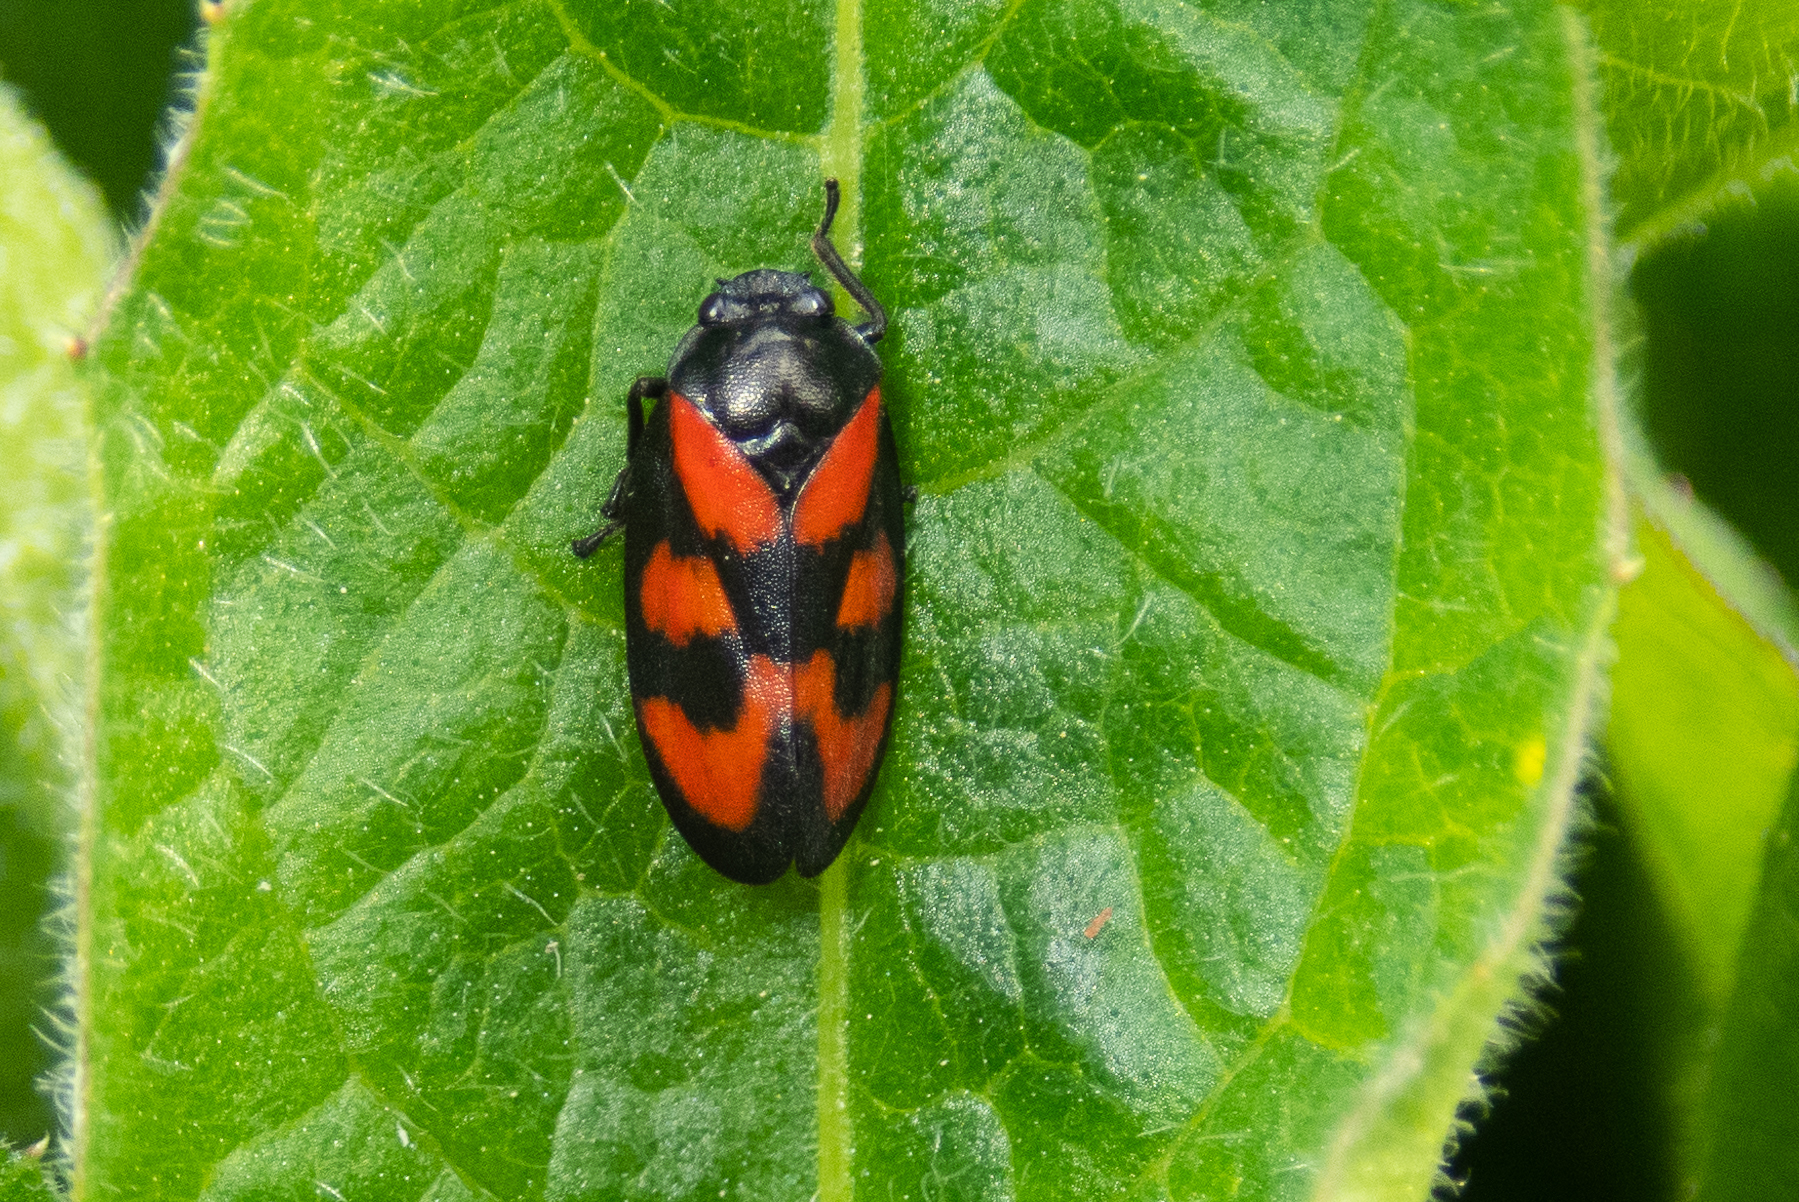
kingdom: Animalia
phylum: Arthropoda
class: Insecta
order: Hemiptera
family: Cercopidae
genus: Cercopis
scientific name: Cercopis vulnerata
